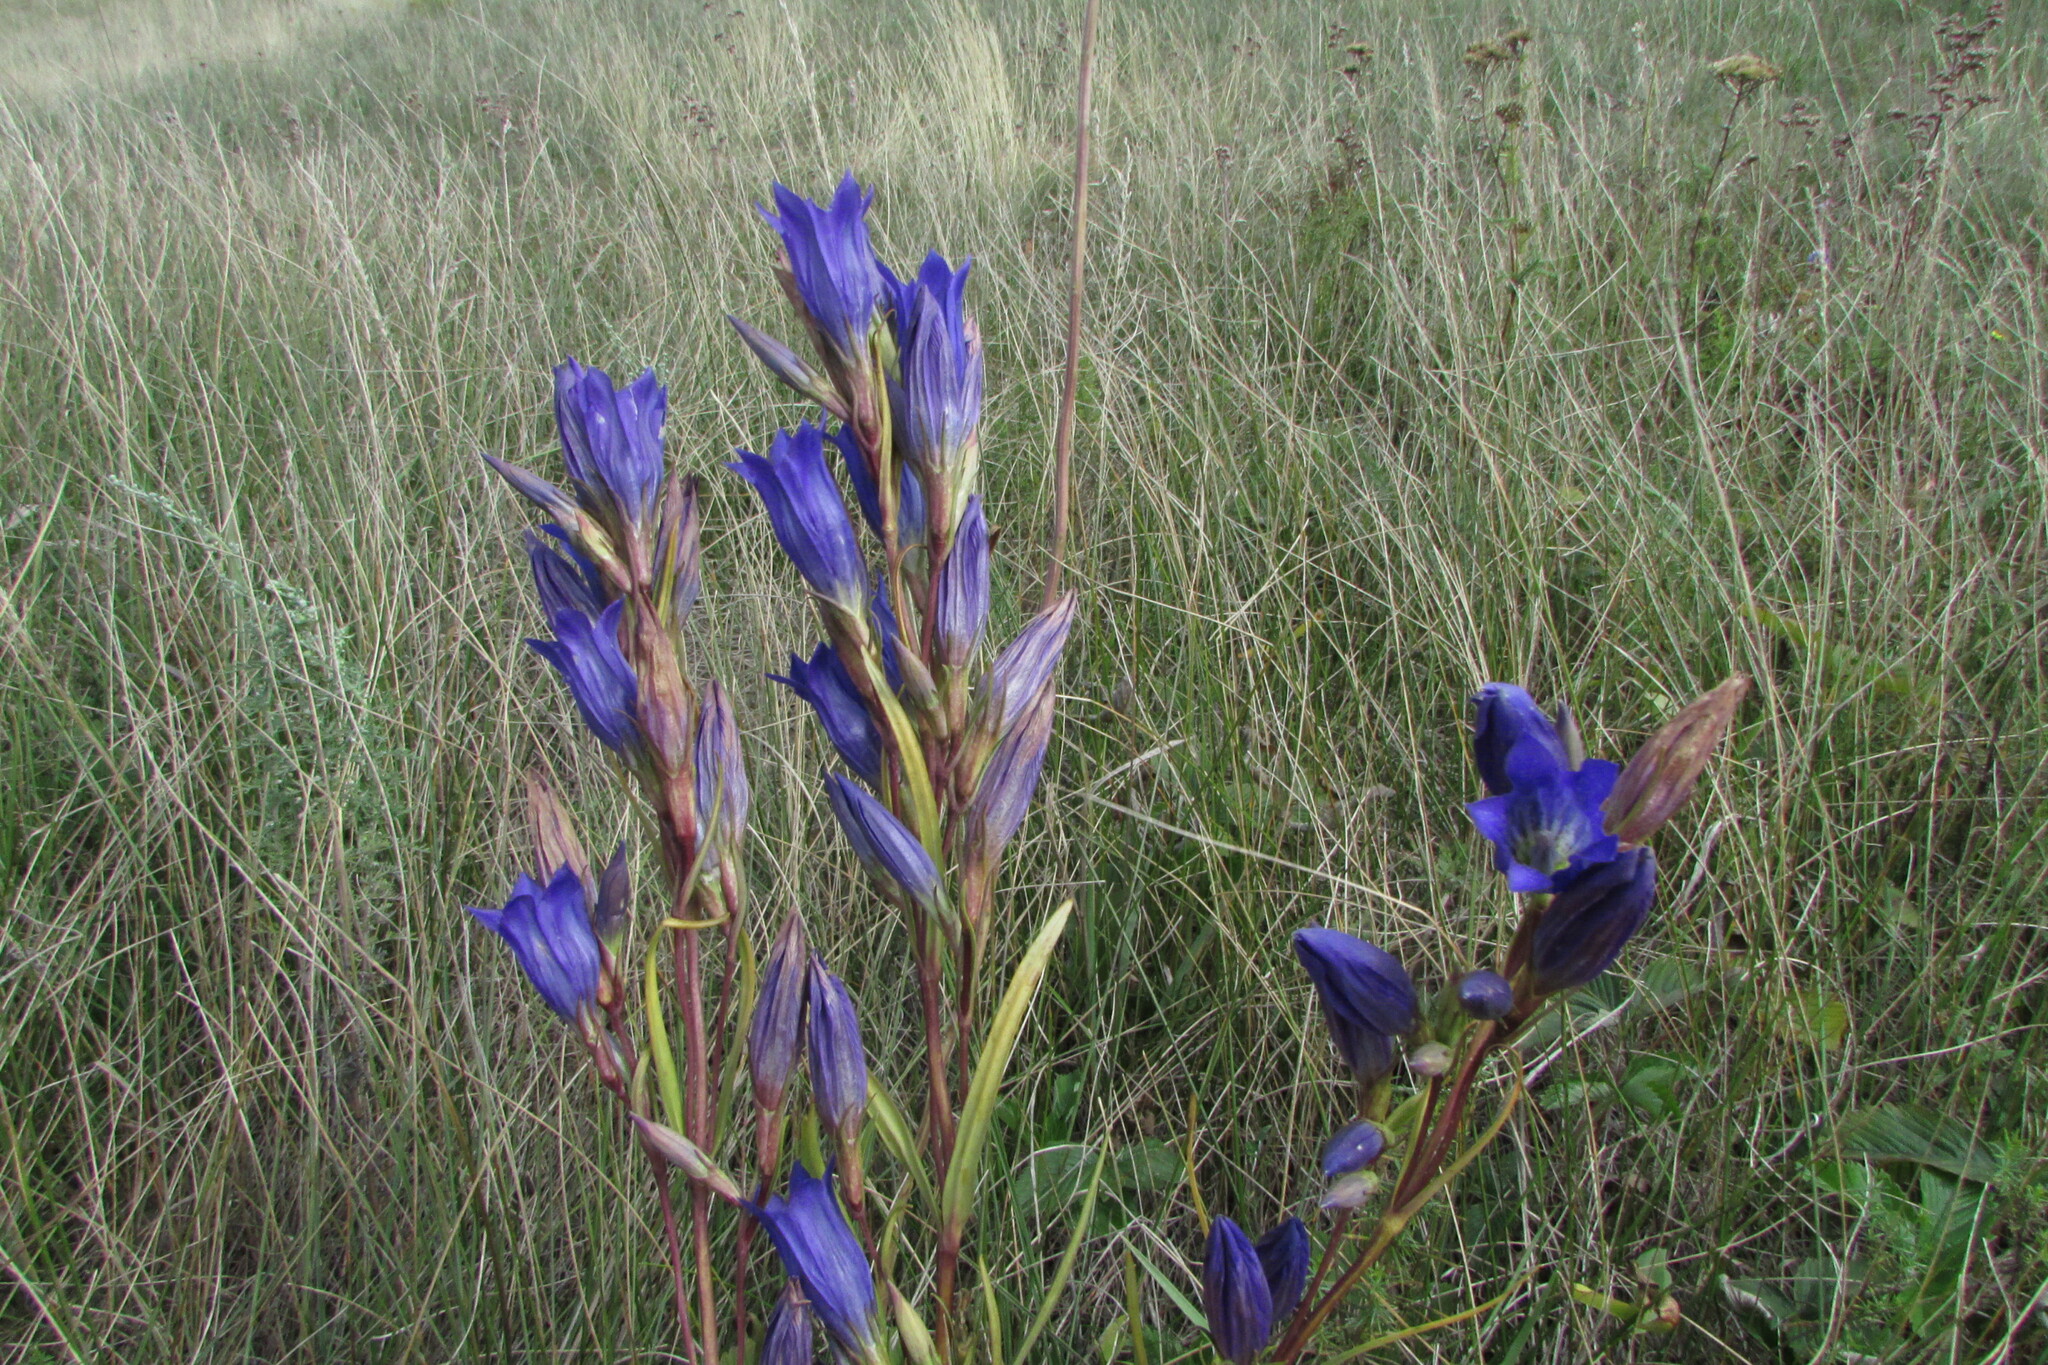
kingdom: Plantae
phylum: Tracheophyta
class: Magnoliopsida
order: Gentianales
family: Gentianaceae
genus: Gentiana
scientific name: Gentiana pneumonanthe
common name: Marsh gentian
